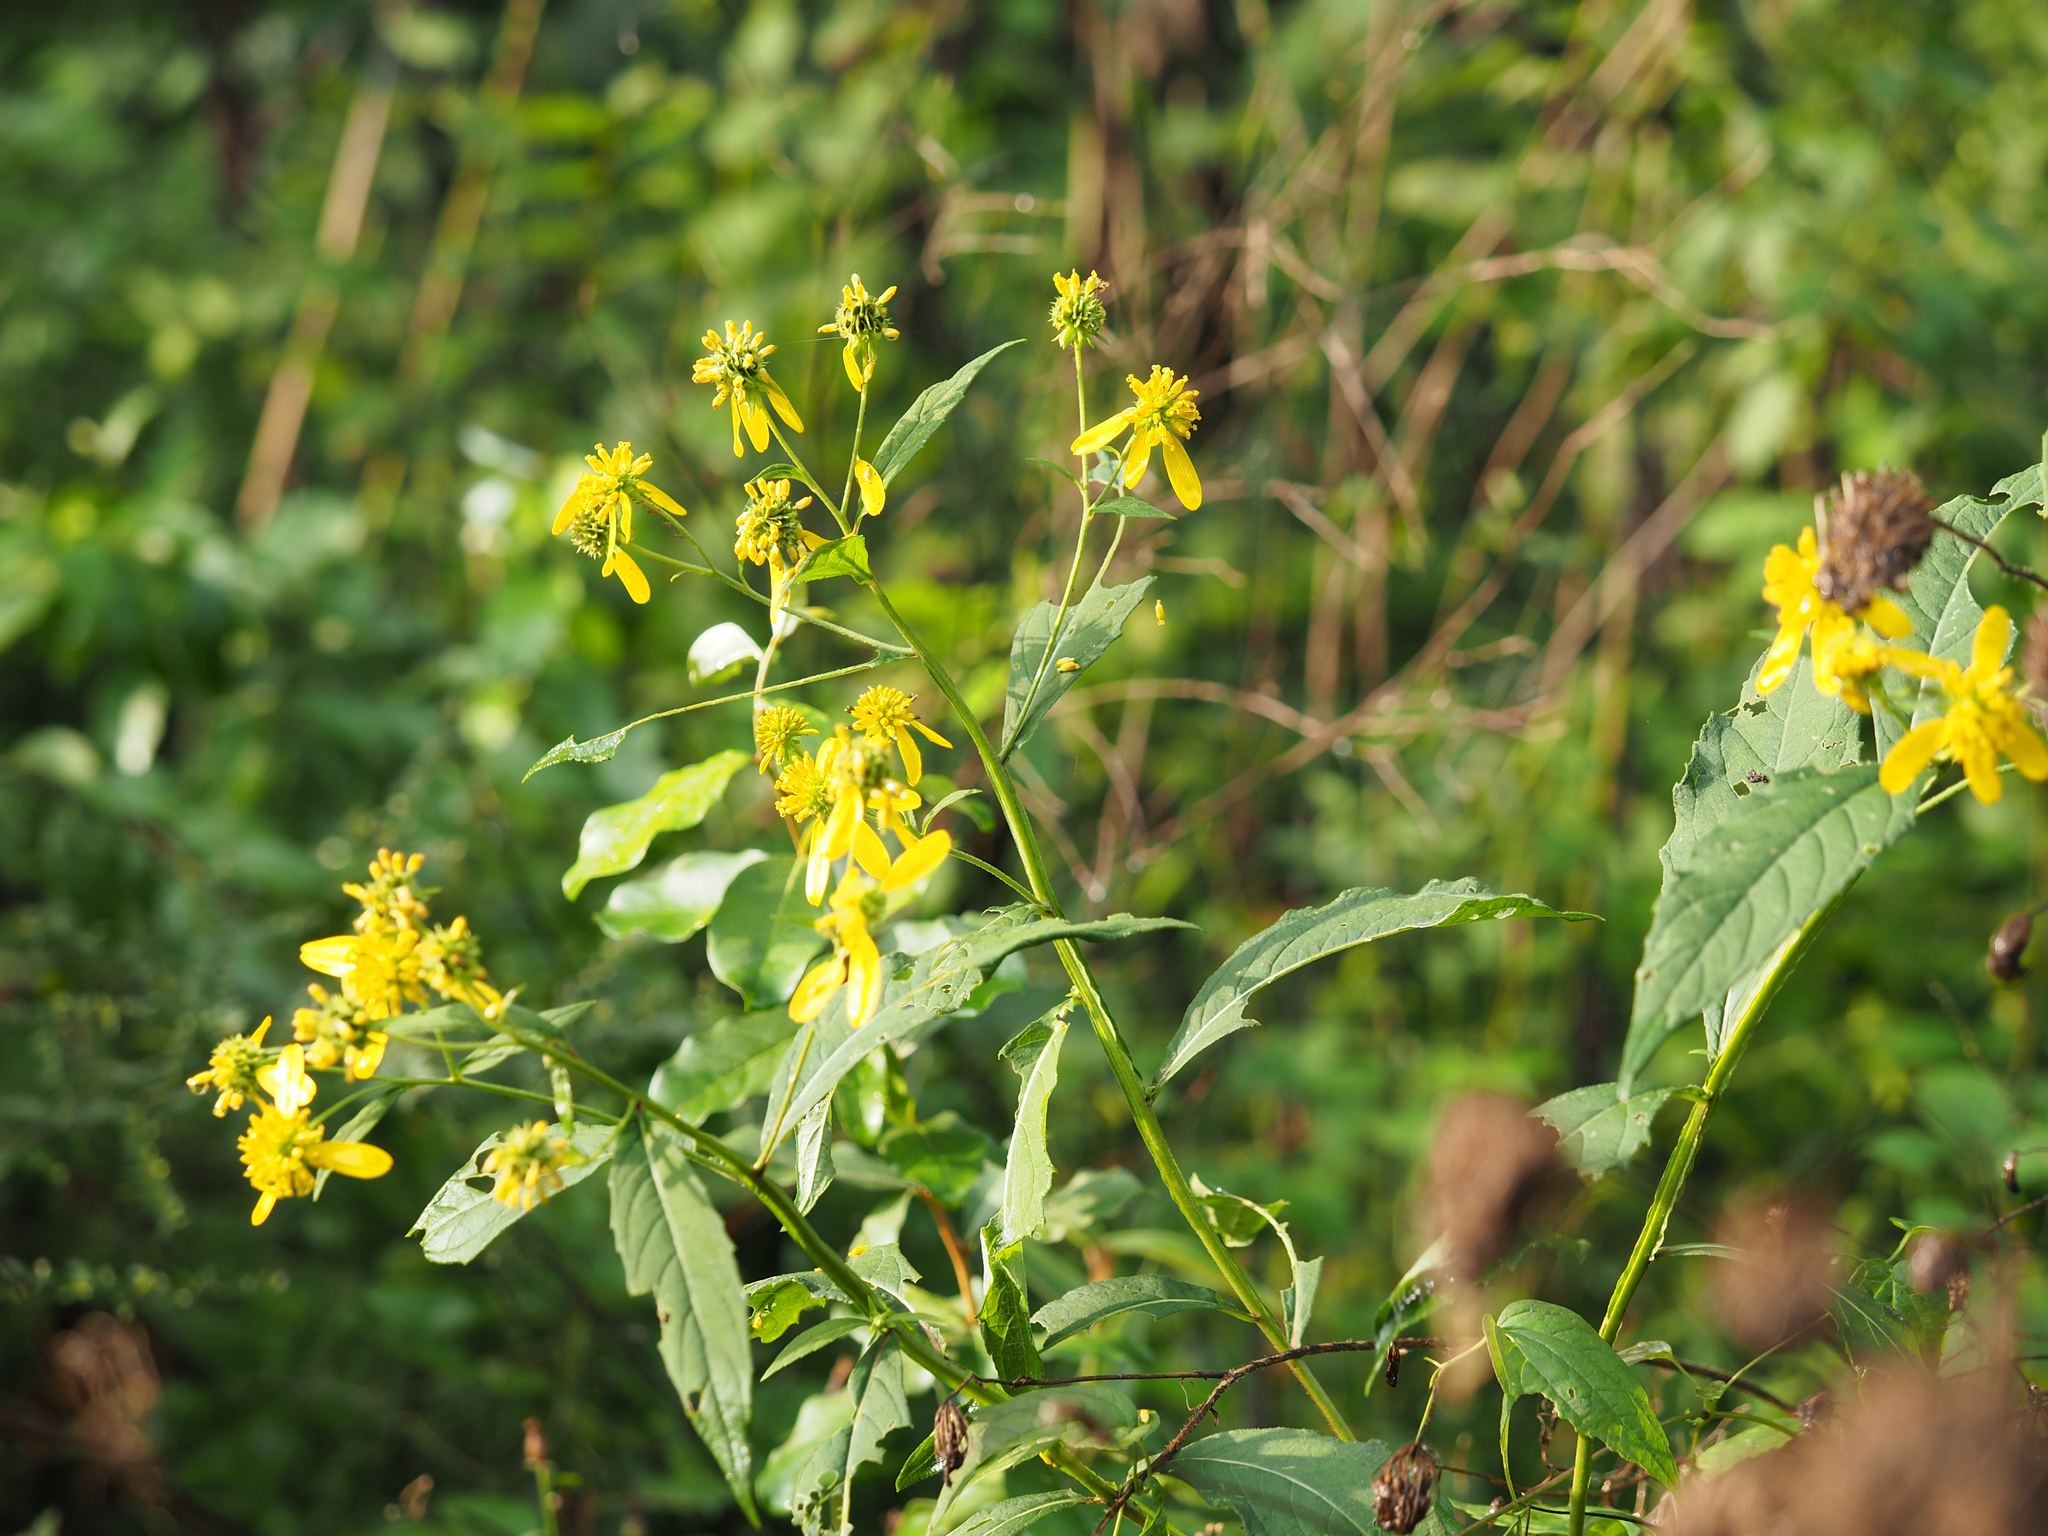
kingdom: Plantae
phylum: Tracheophyta
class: Magnoliopsida
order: Asterales
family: Asteraceae
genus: Verbesina
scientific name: Verbesina alternifolia
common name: Wingstem
